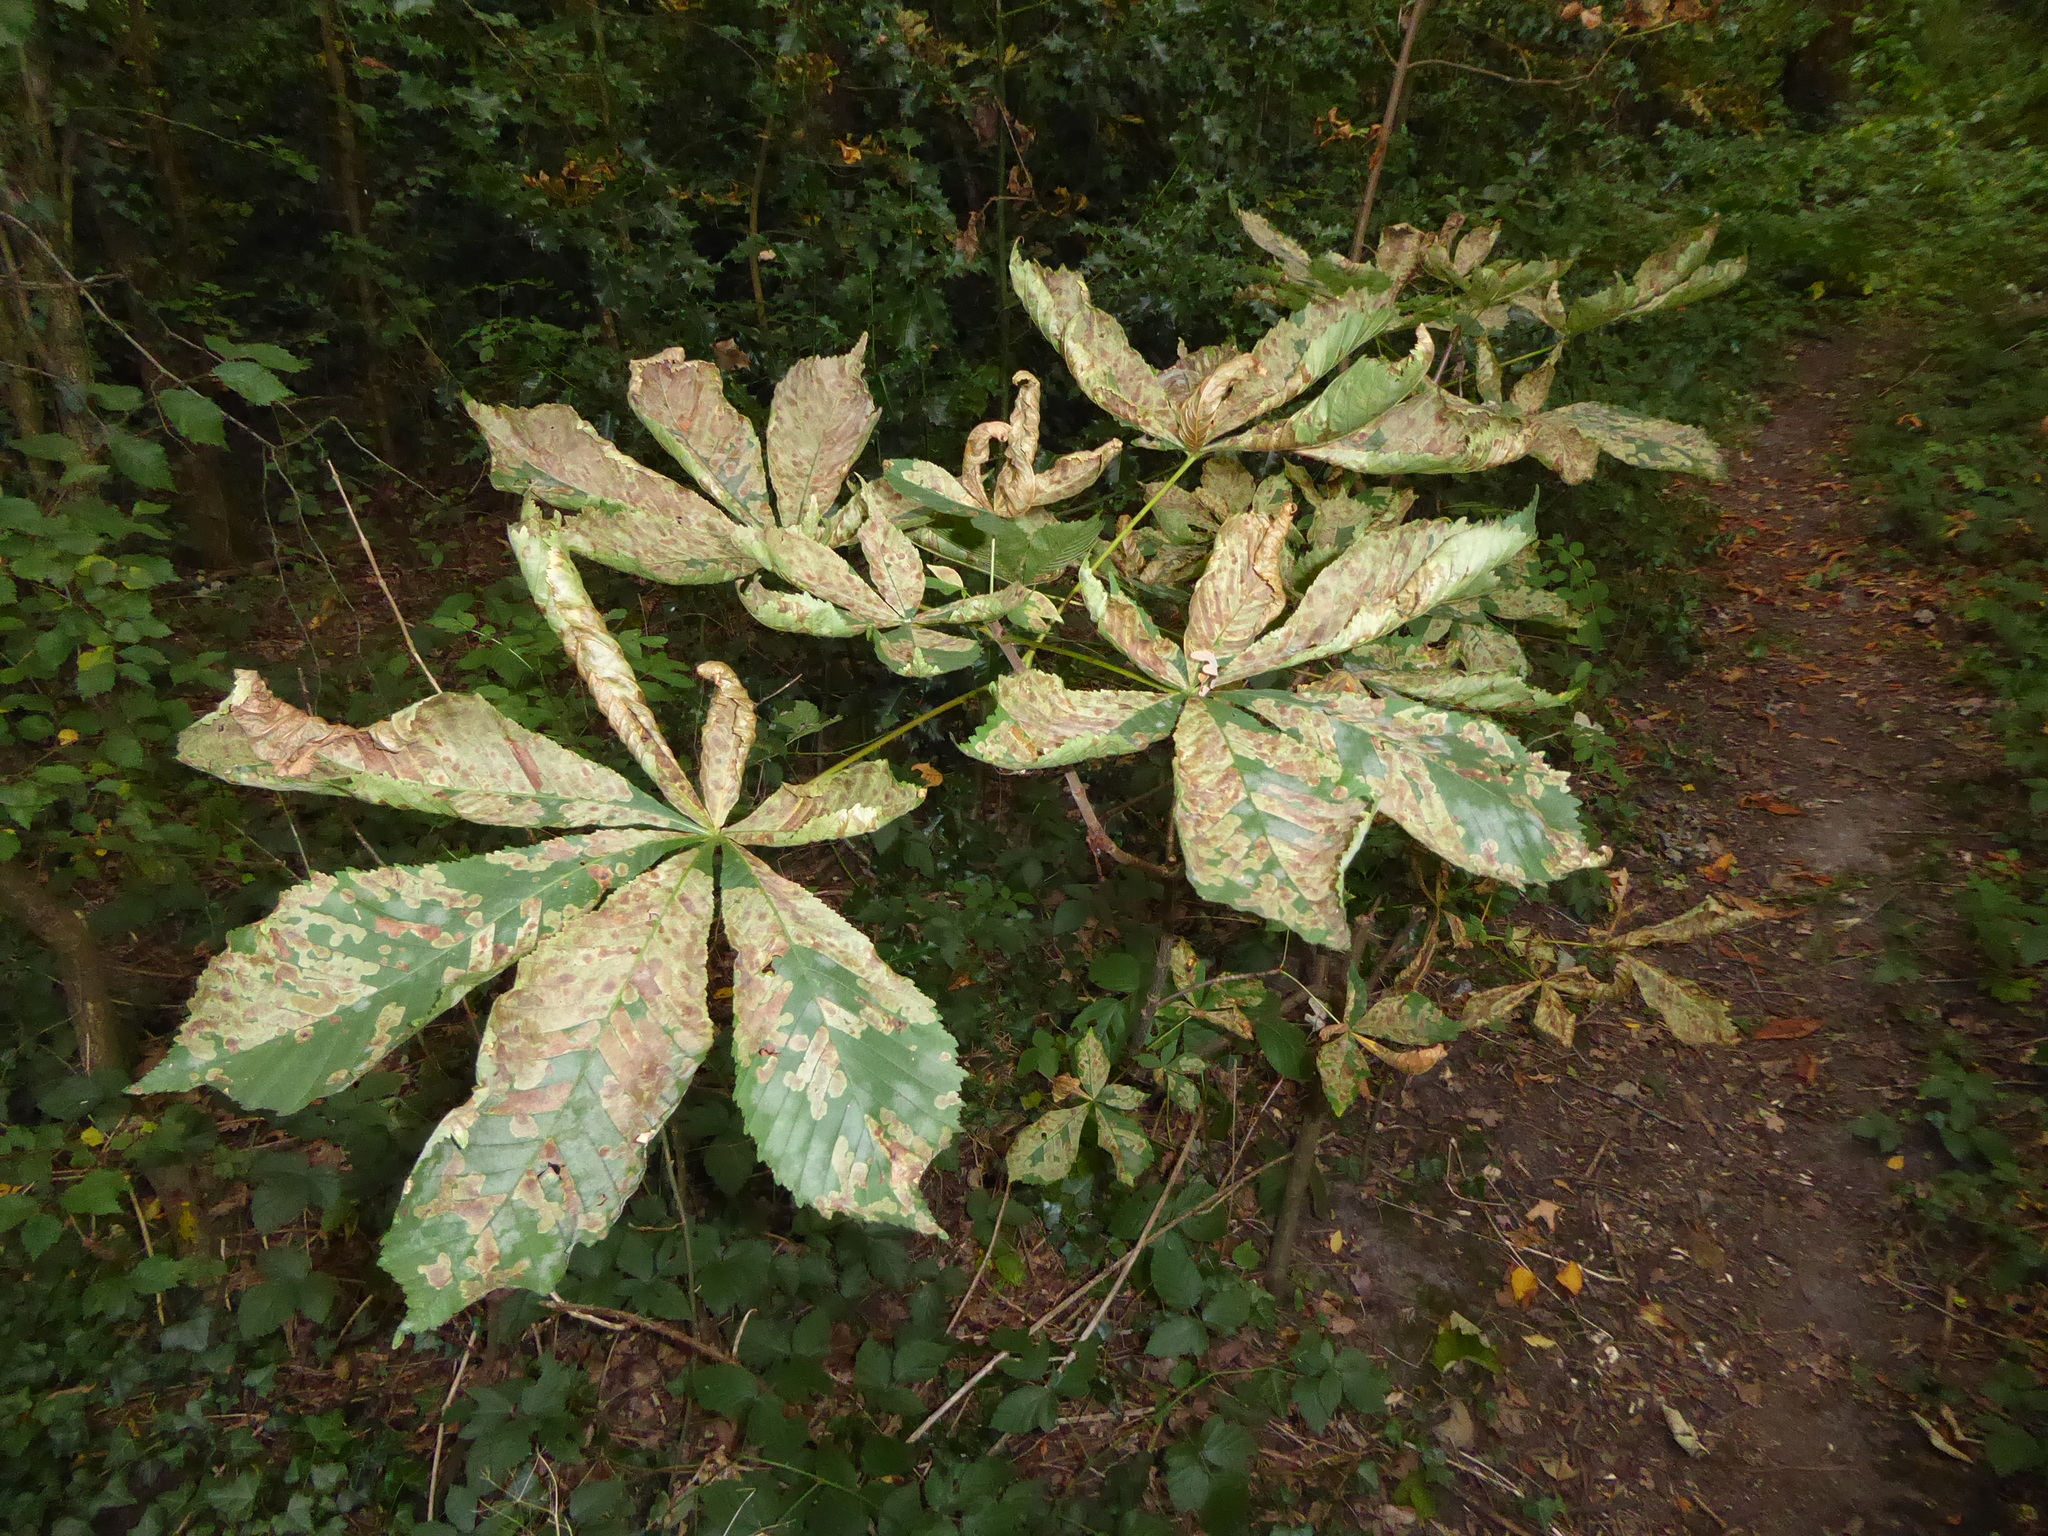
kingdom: Animalia
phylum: Arthropoda
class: Insecta
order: Lepidoptera
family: Gracillariidae
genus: Cameraria
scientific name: Cameraria ohridella
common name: Horse-chestnut leaf-miner
